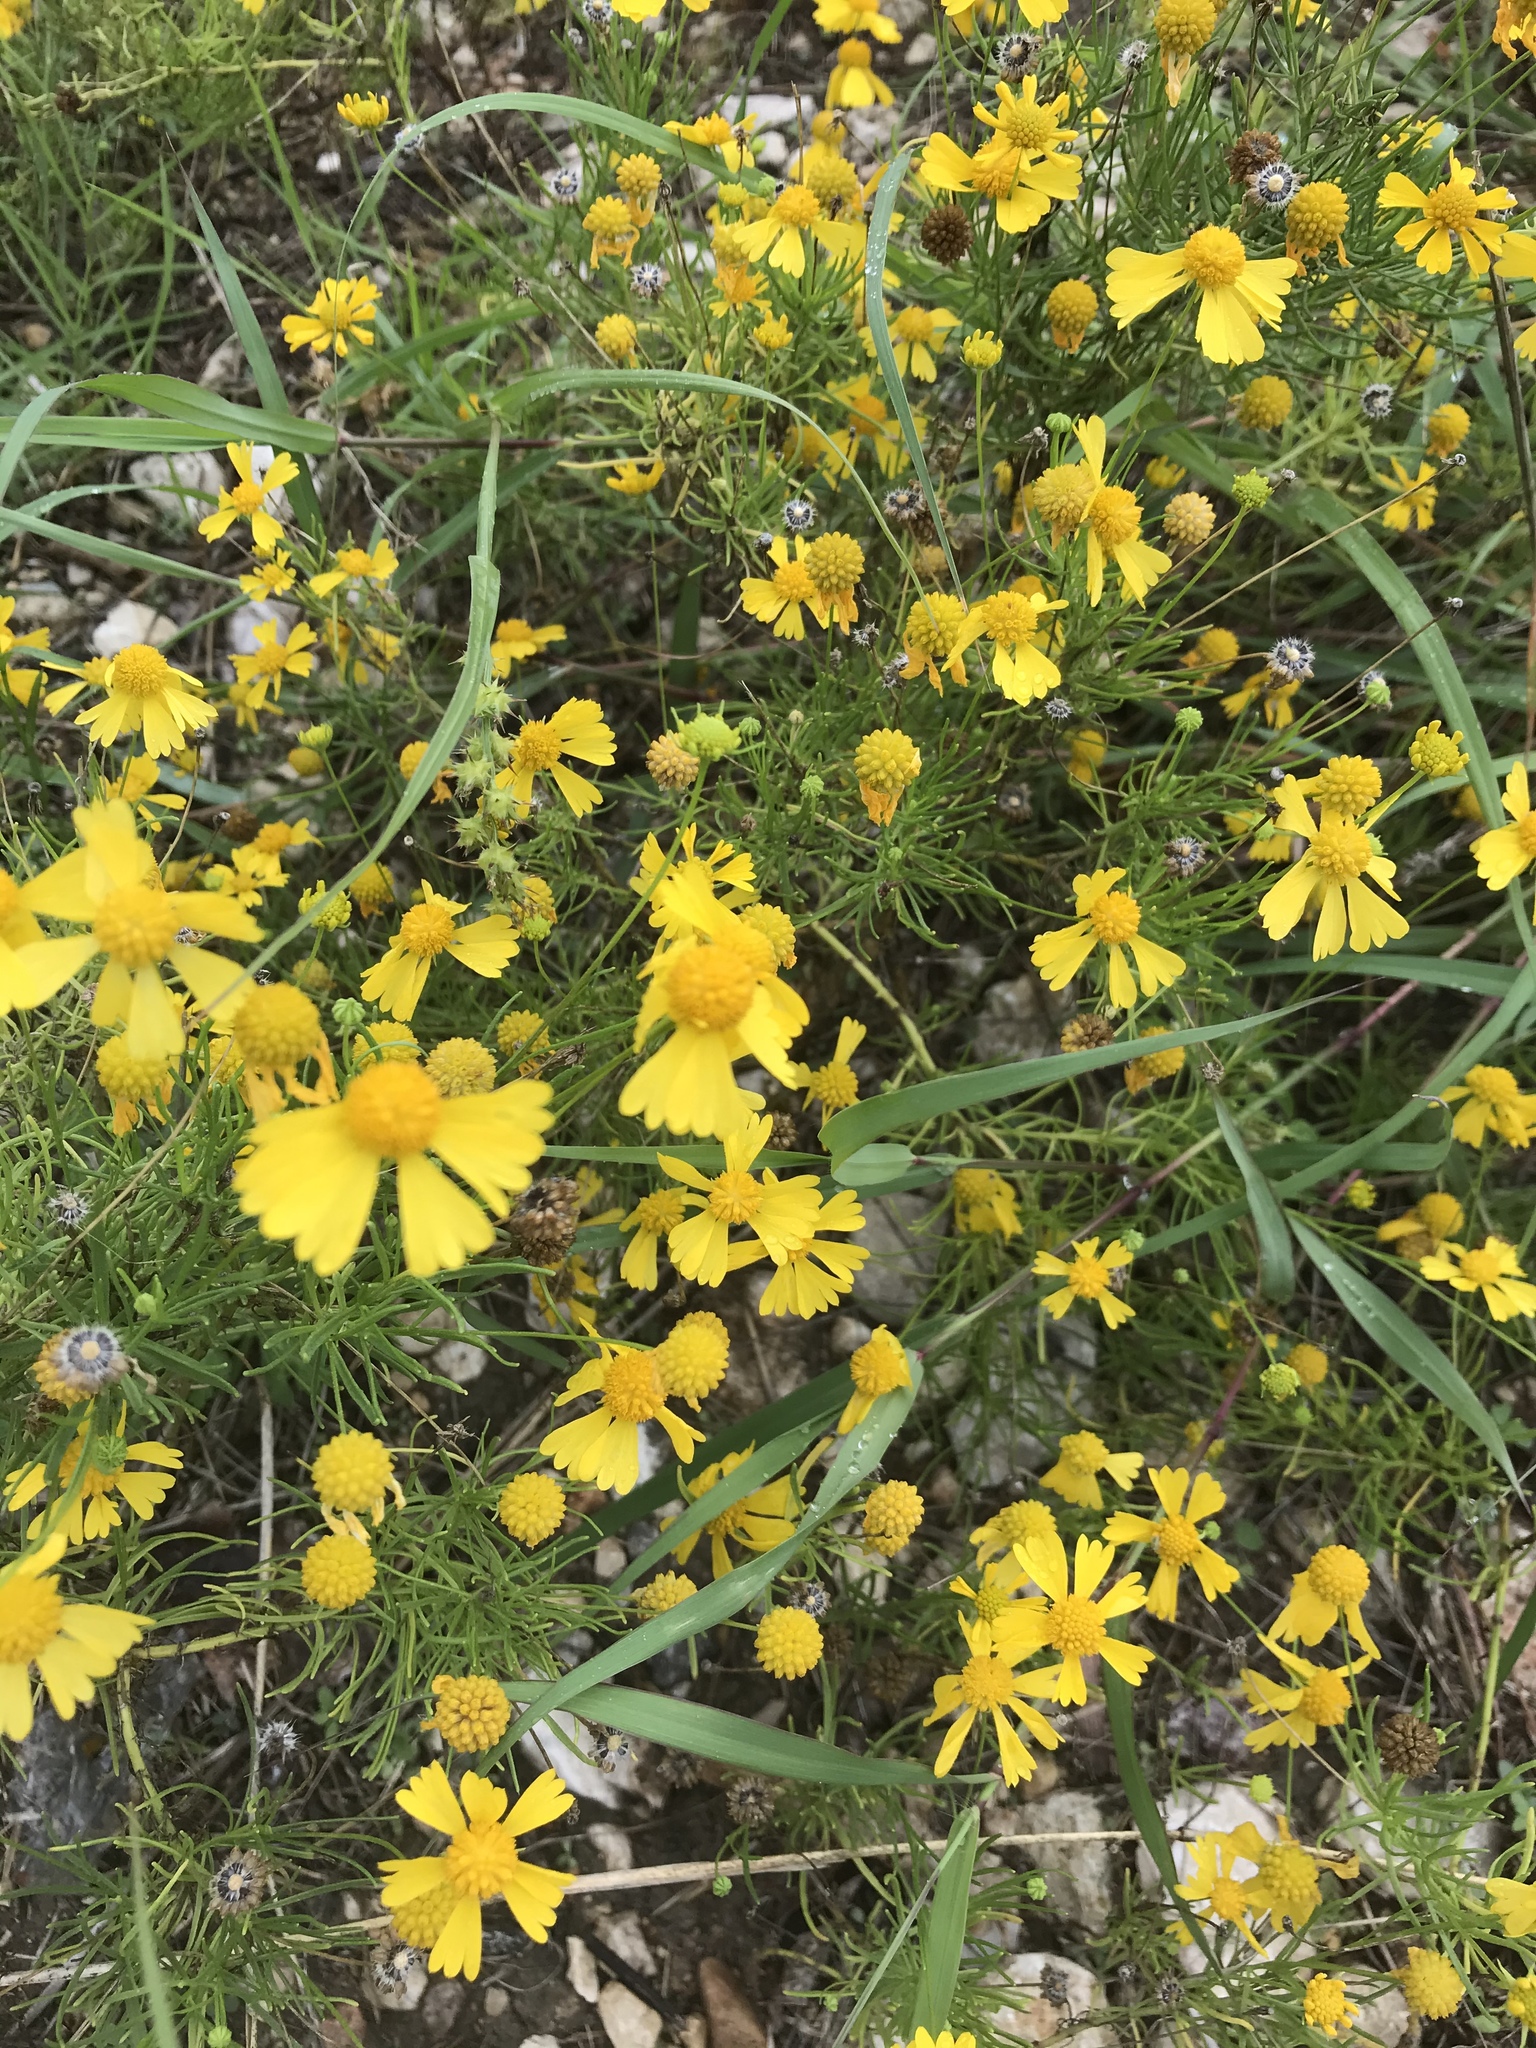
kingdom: Plantae
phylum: Tracheophyta
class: Magnoliopsida
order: Asterales
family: Asteraceae
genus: Helenium
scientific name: Helenium amarum
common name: Bitter sneezeweed
